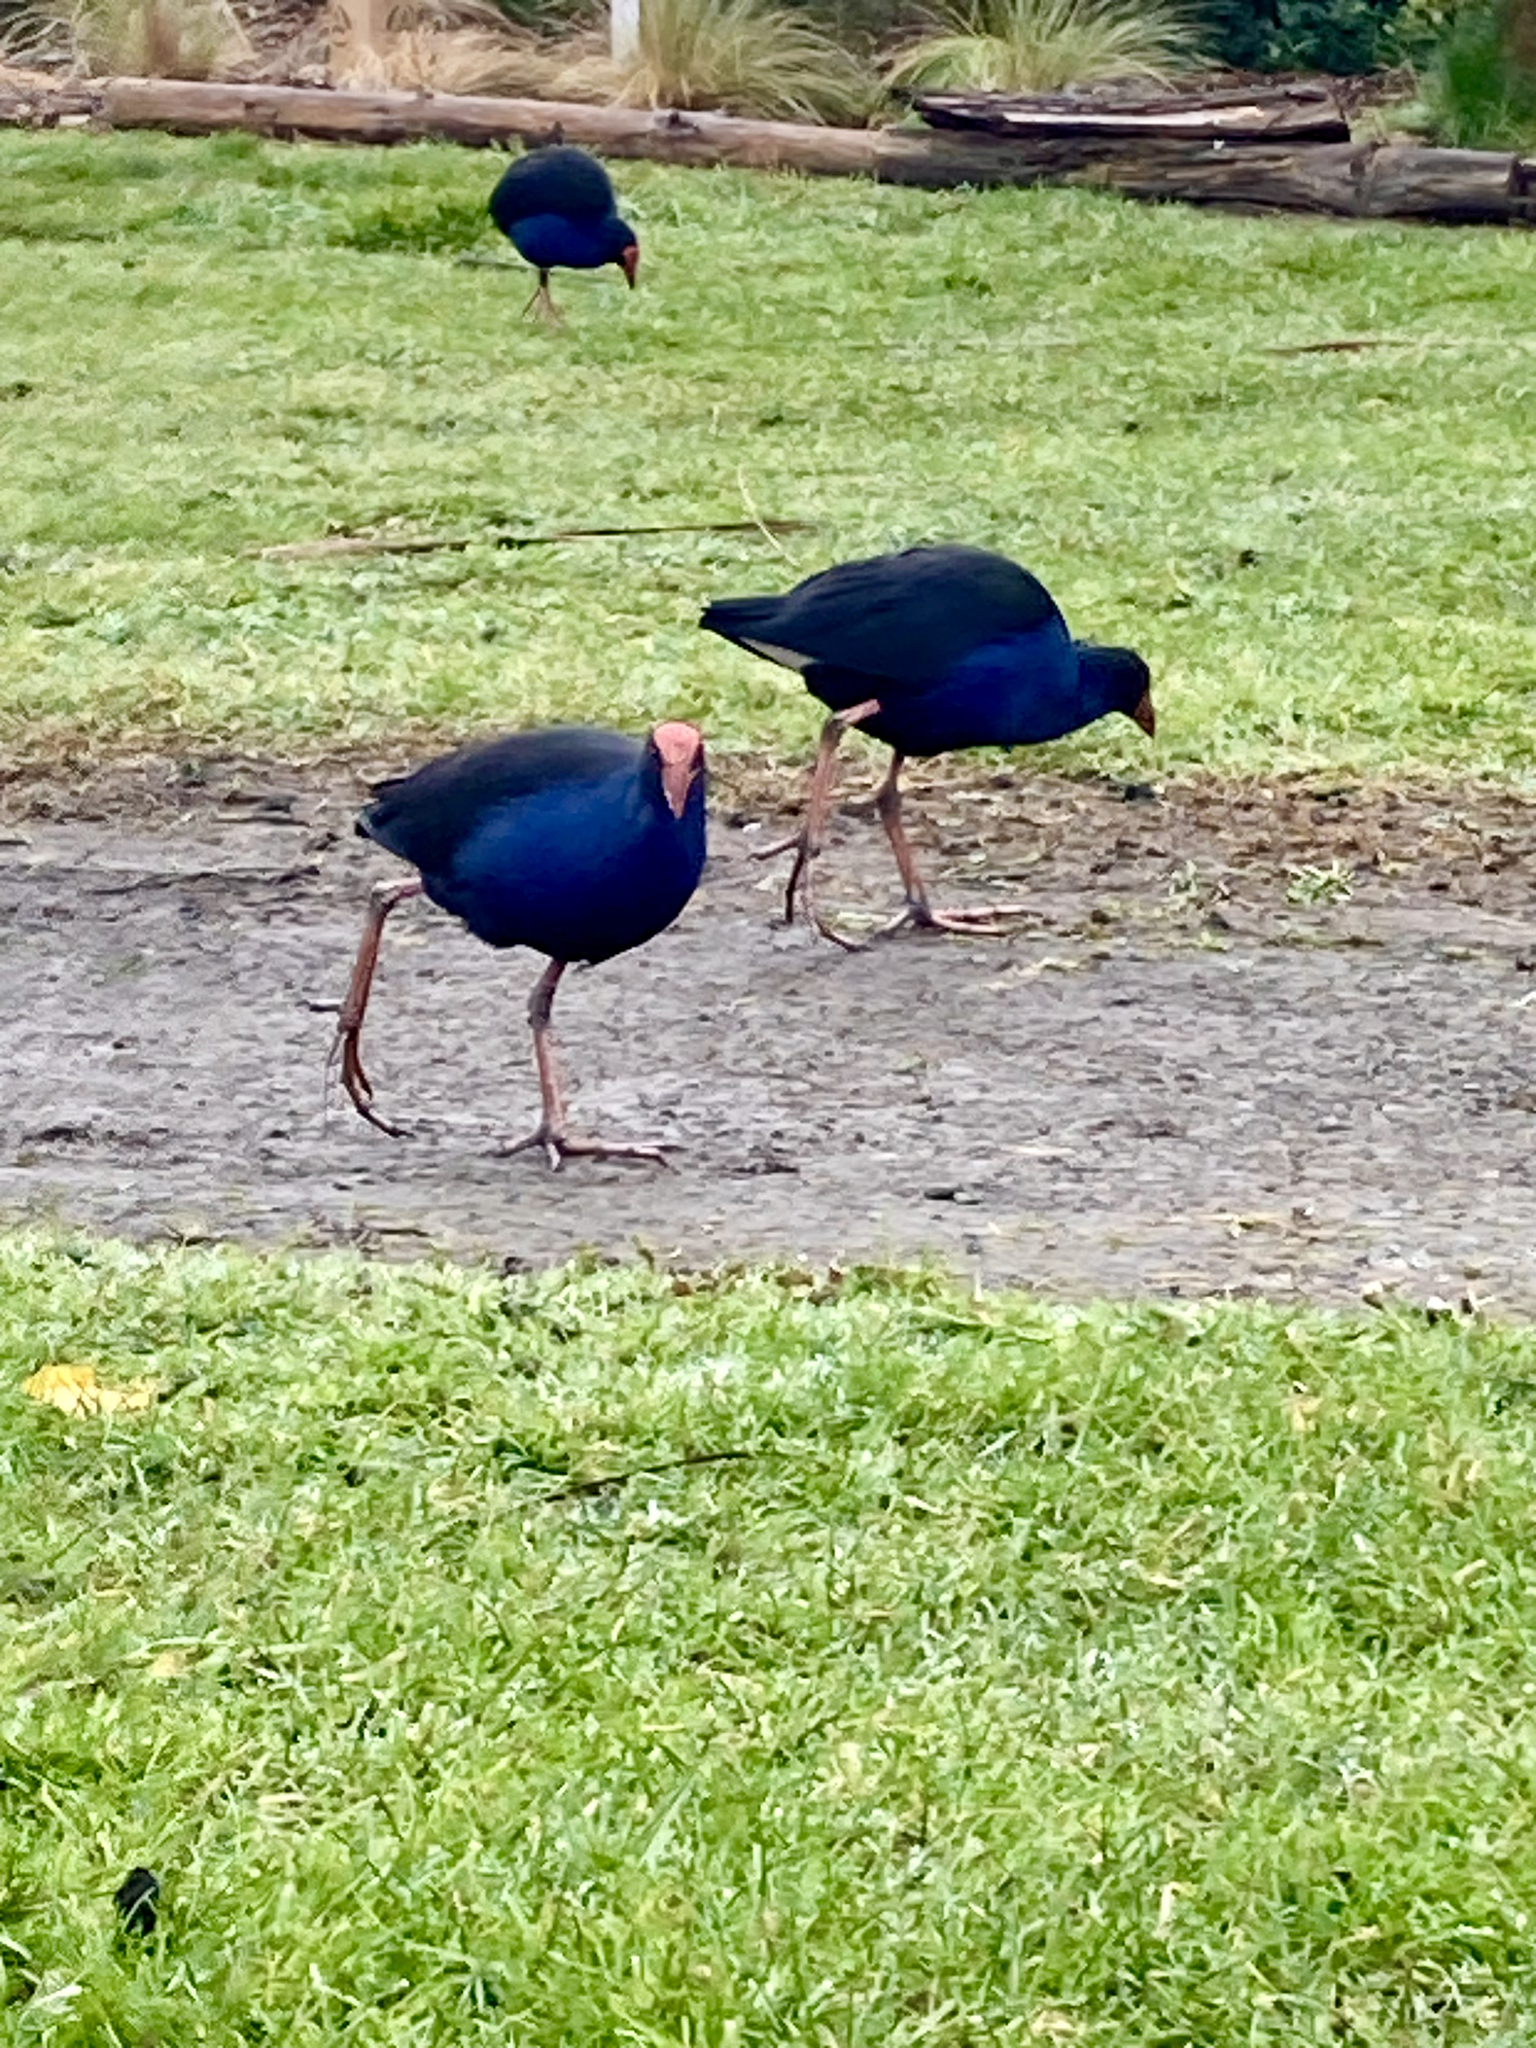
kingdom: Animalia
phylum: Chordata
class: Aves
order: Gruiformes
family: Rallidae
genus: Porphyrio
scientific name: Porphyrio melanotus
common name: Australasian swamphen
